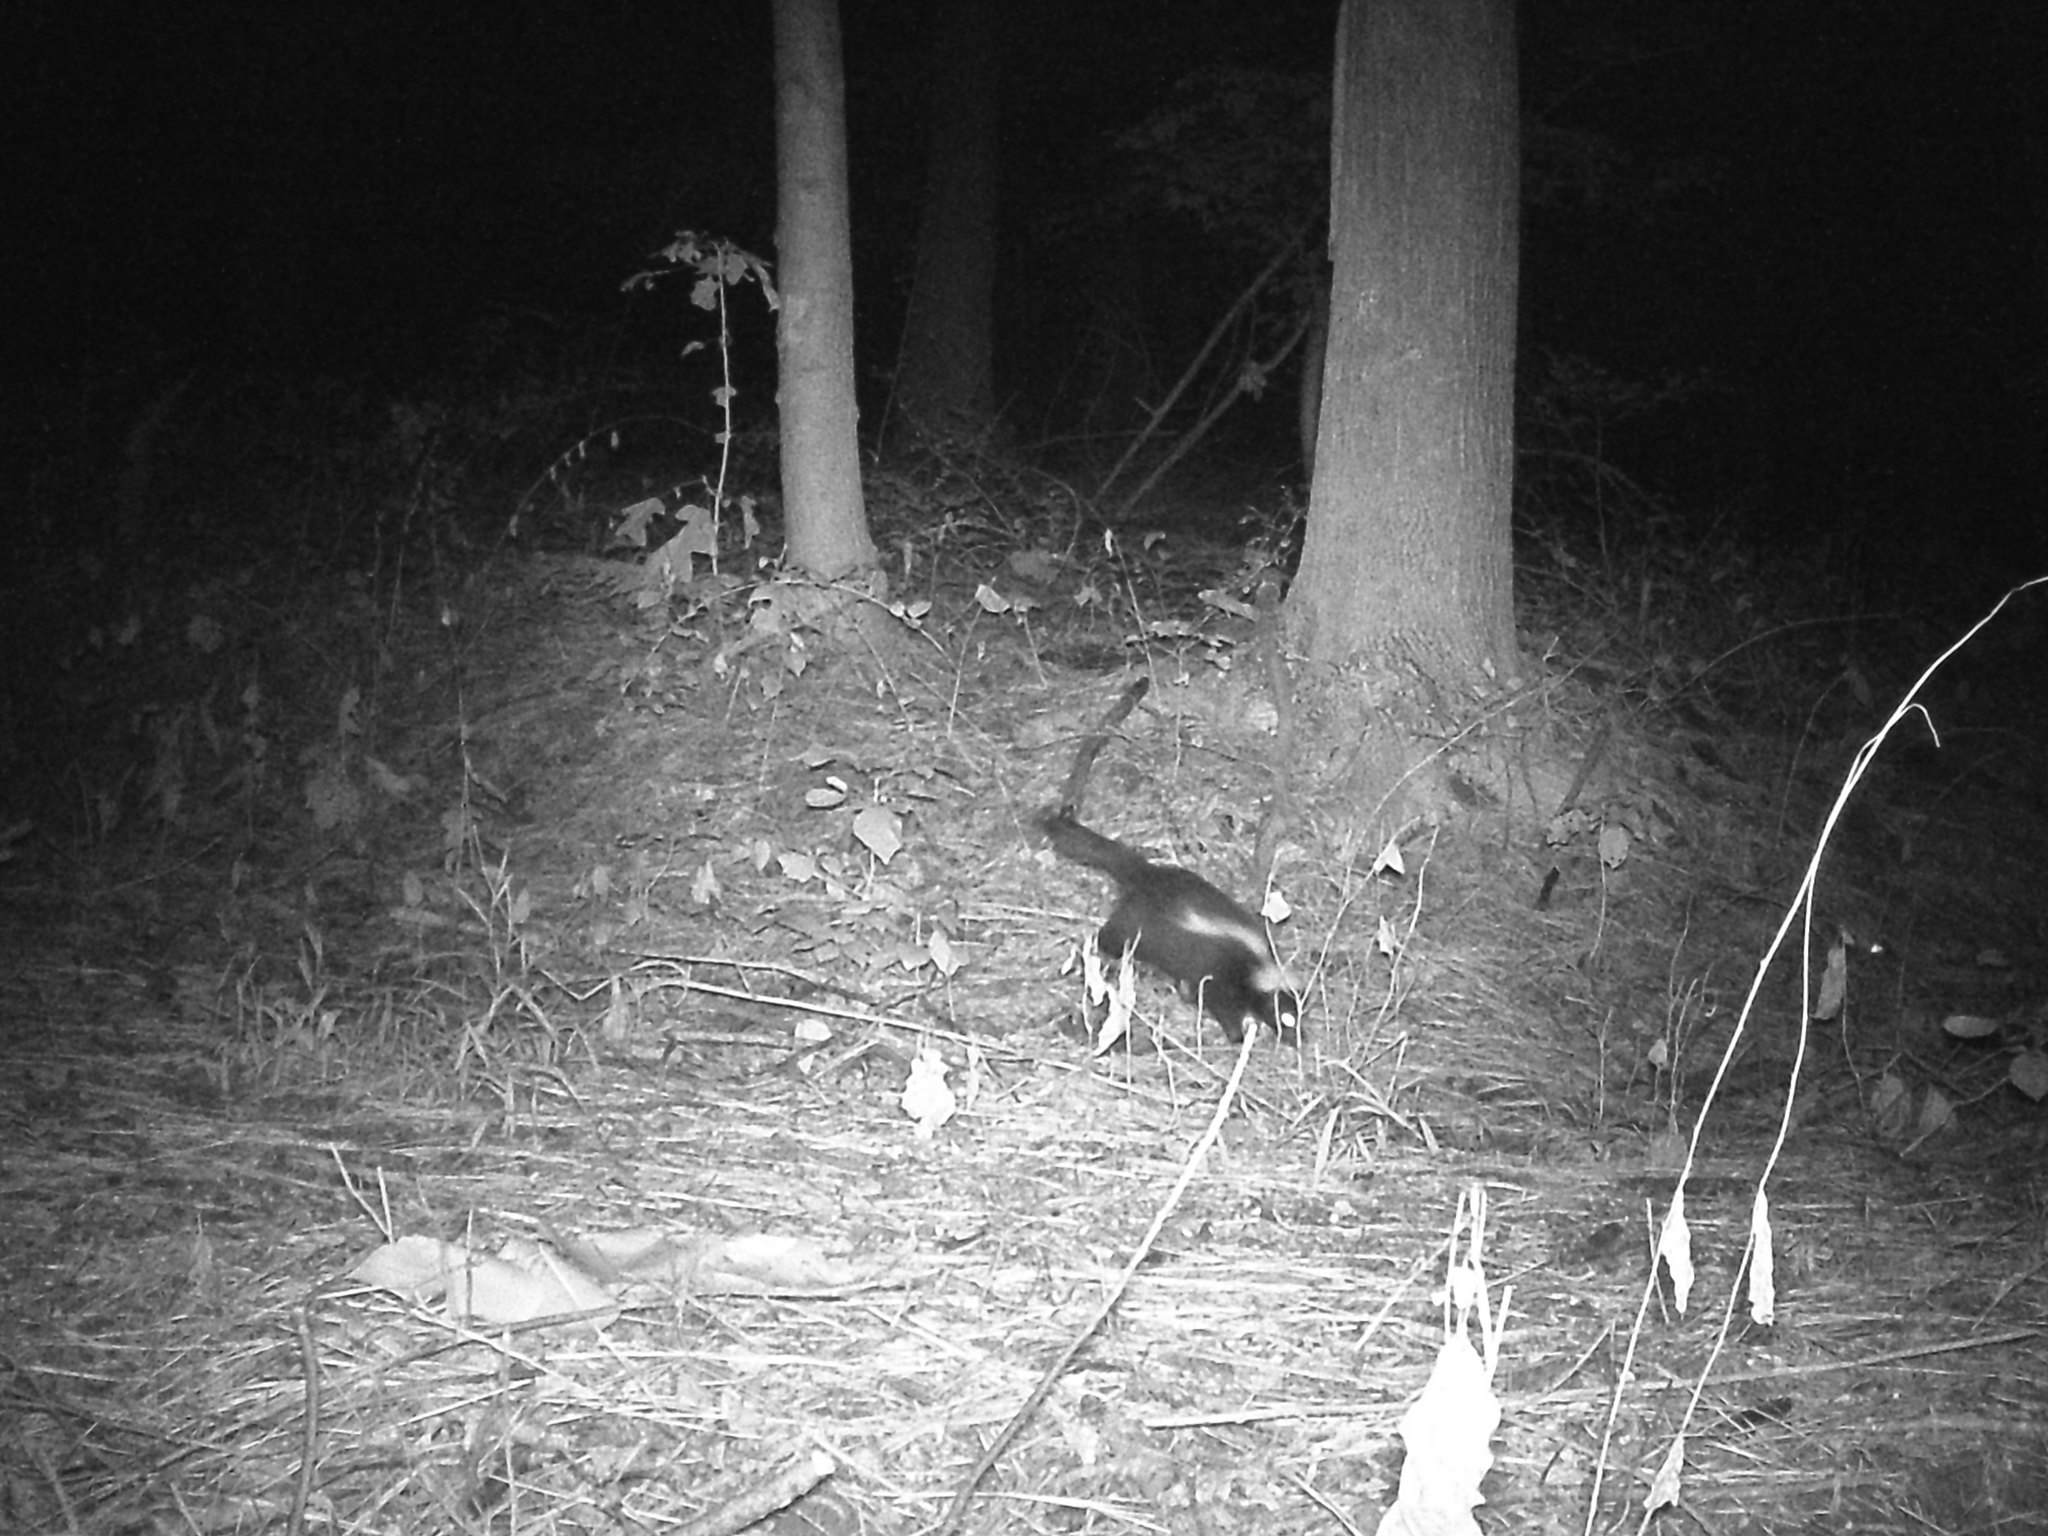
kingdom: Animalia
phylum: Chordata
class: Mammalia
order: Carnivora
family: Mephitidae
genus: Mephitis
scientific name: Mephitis mephitis
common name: Striped skunk
